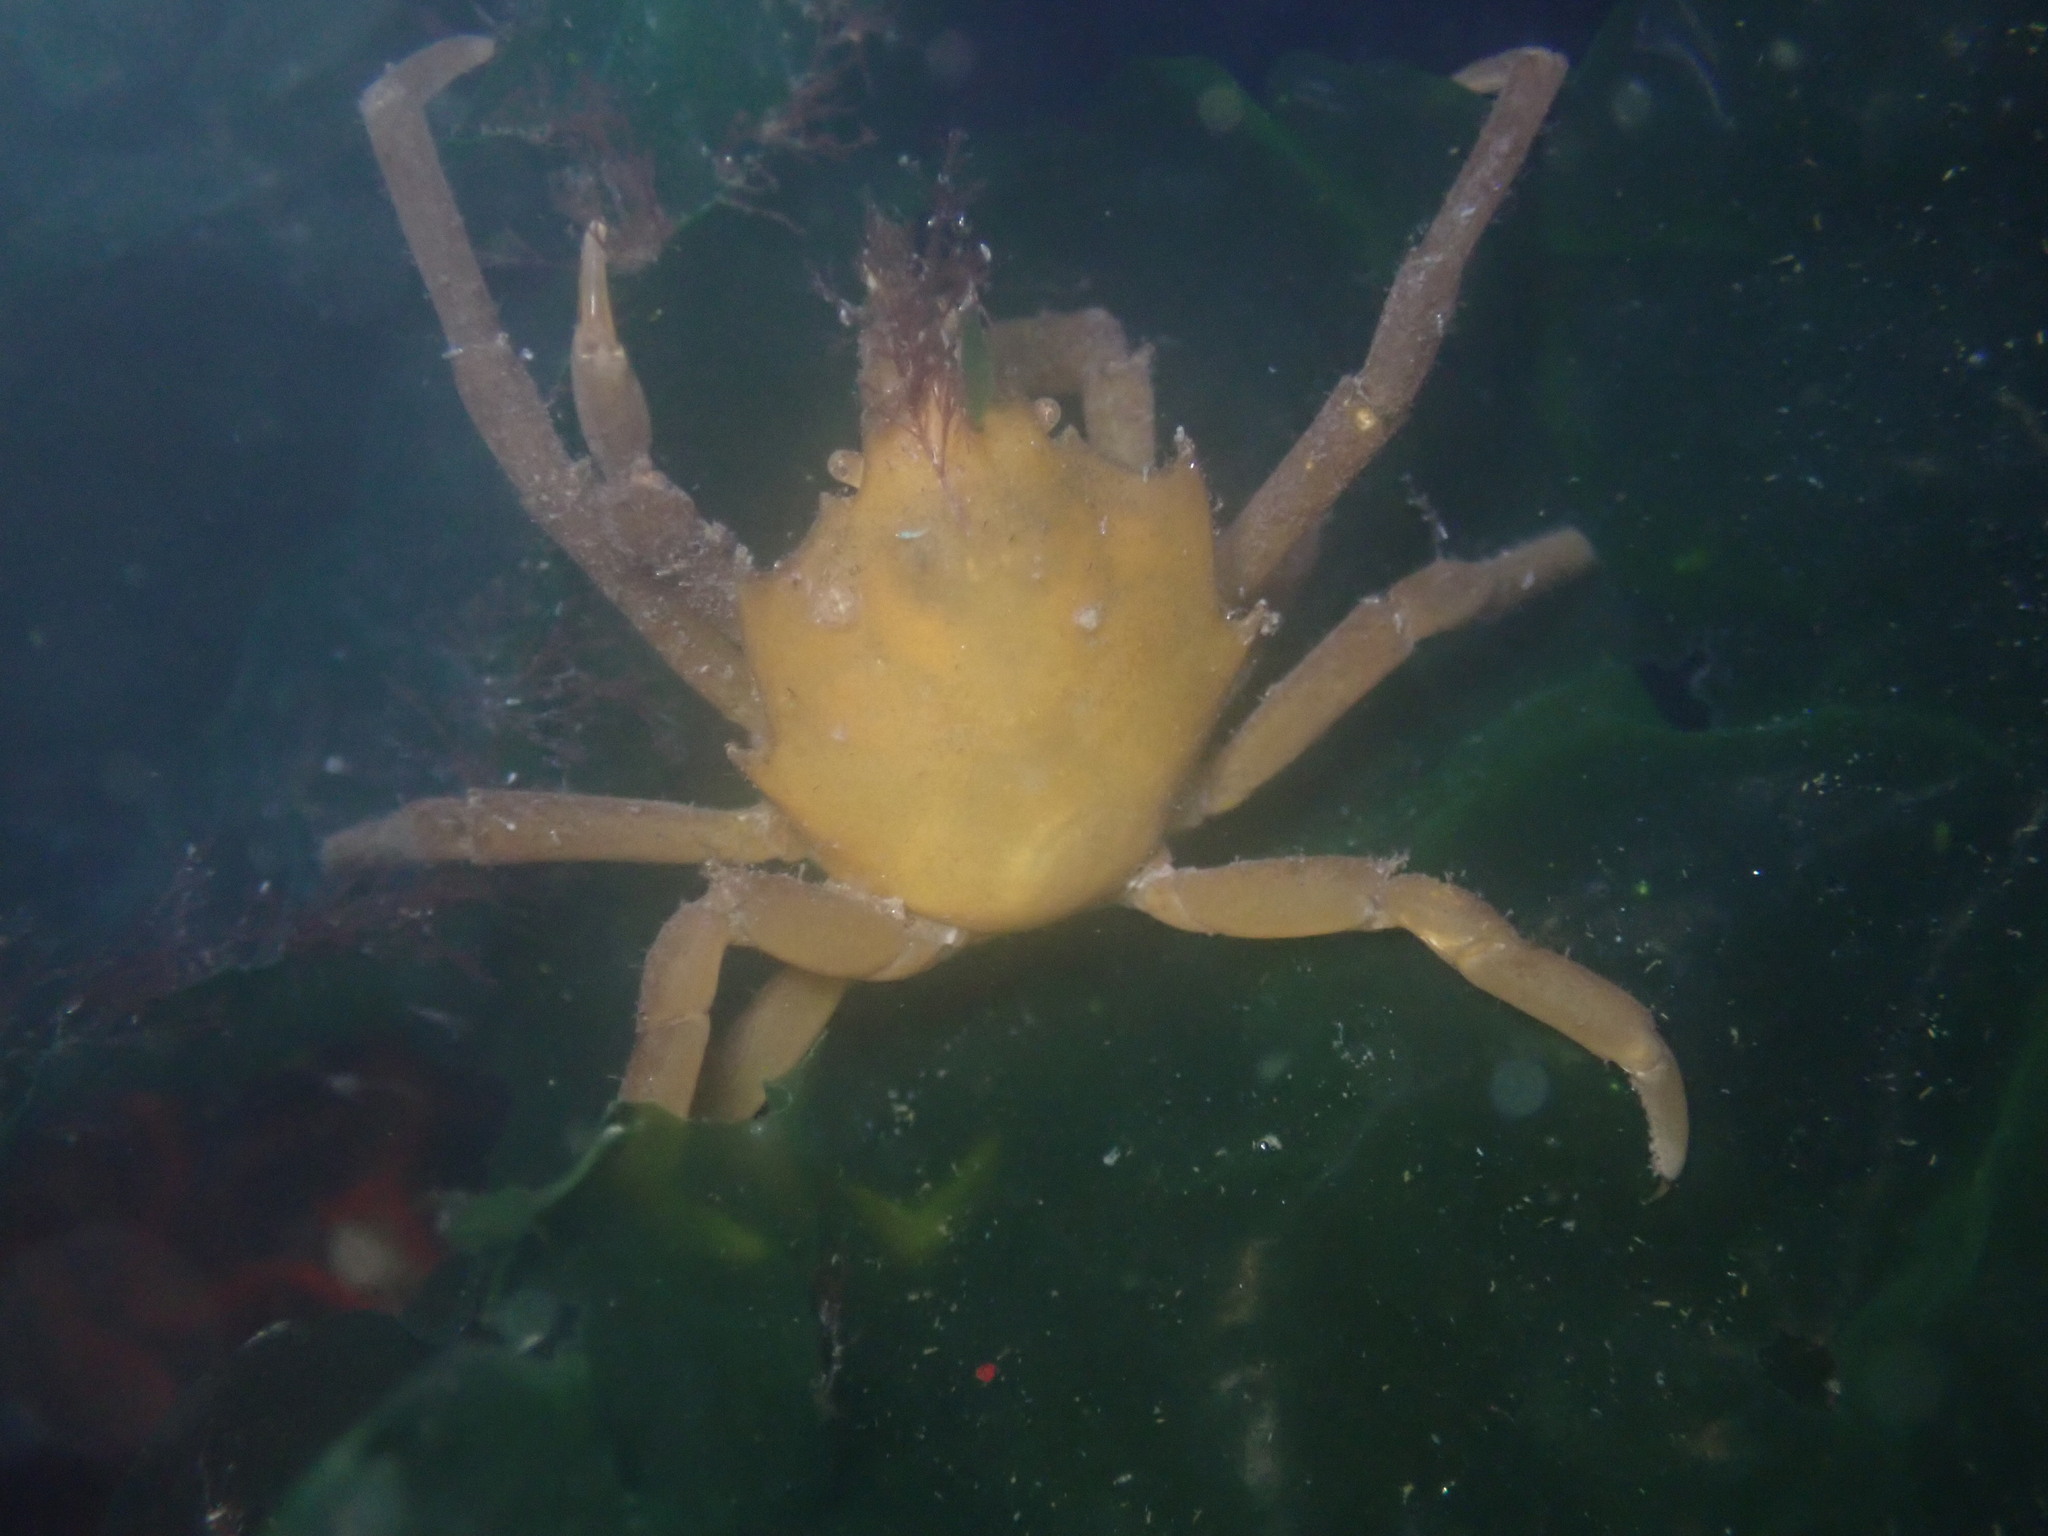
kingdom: Animalia
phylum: Arthropoda
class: Malacostraca
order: Decapoda
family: Epialtidae
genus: Pugettia
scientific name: Pugettia producta
